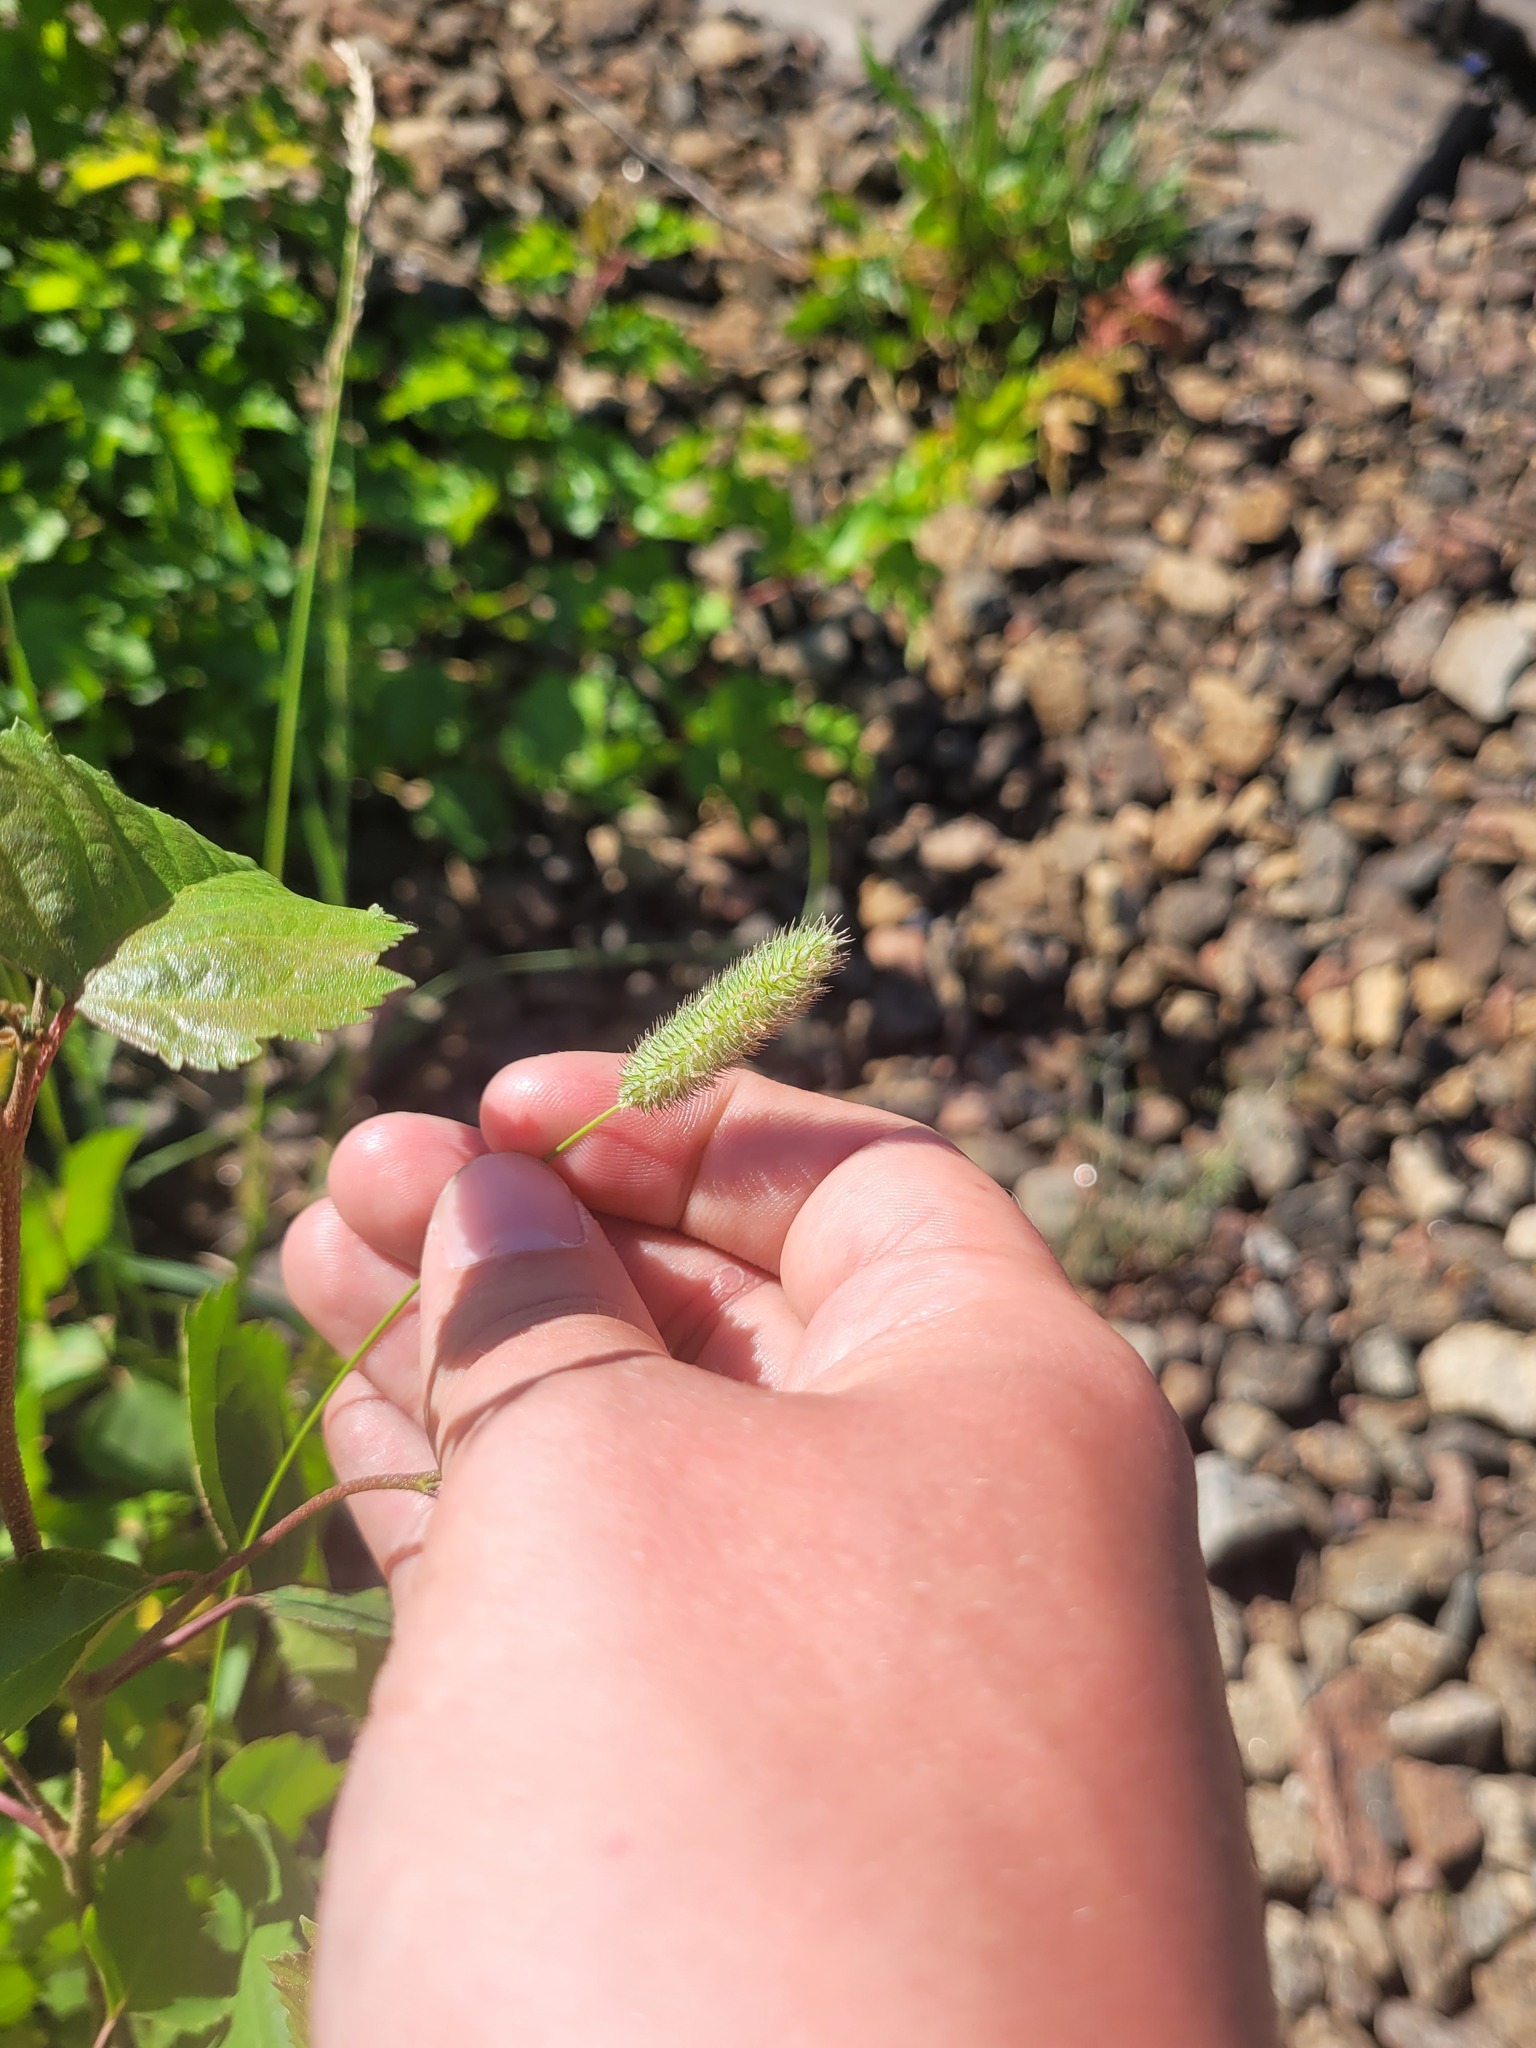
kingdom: Plantae
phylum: Tracheophyta
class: Liliopsida
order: Poales
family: Poaceae
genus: Phleum
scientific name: Phleum pratense
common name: Timothy grass
